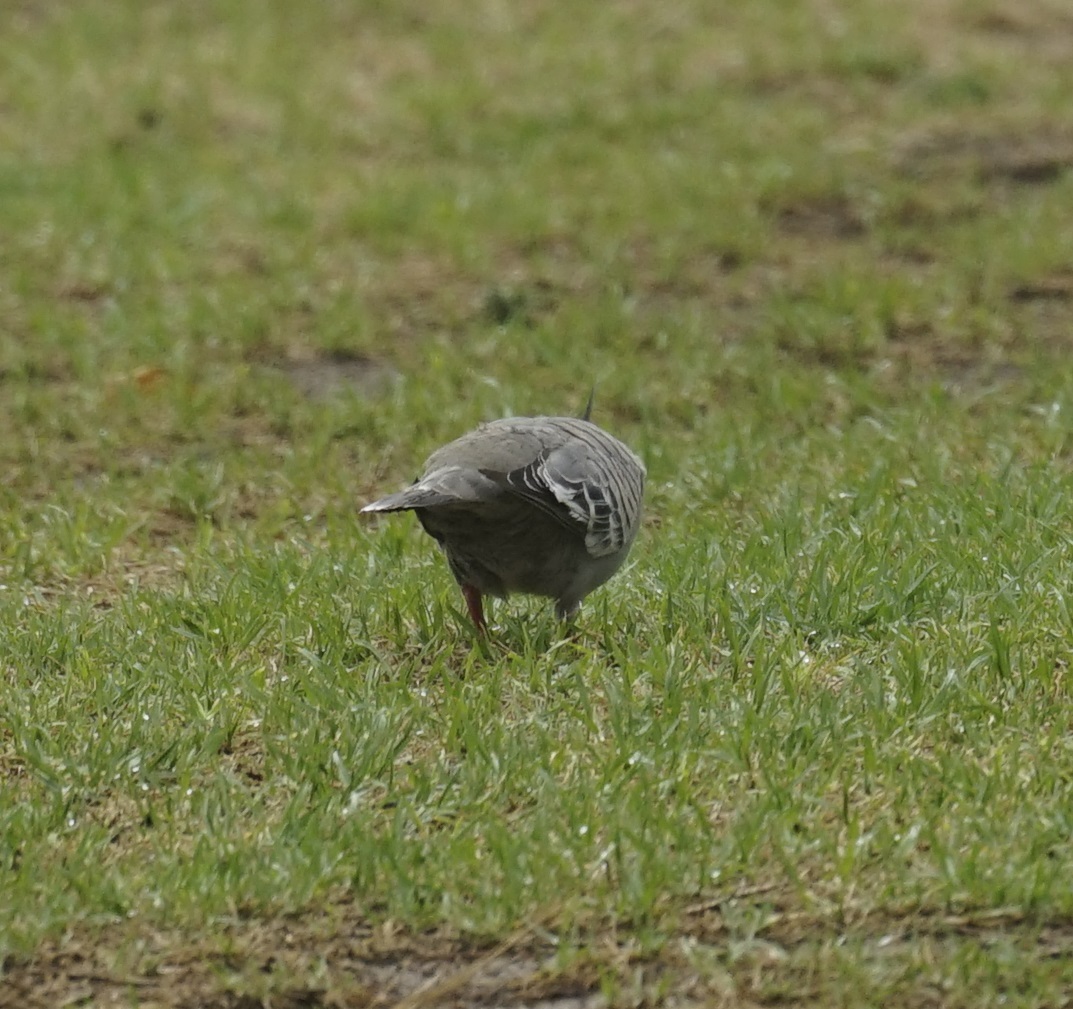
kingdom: Animalia
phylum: Chordata
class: Aves
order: Columbiformes
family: Columbidae
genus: Ocyphaps
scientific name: Ocyphaps lophotes
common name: Crested pigeon
